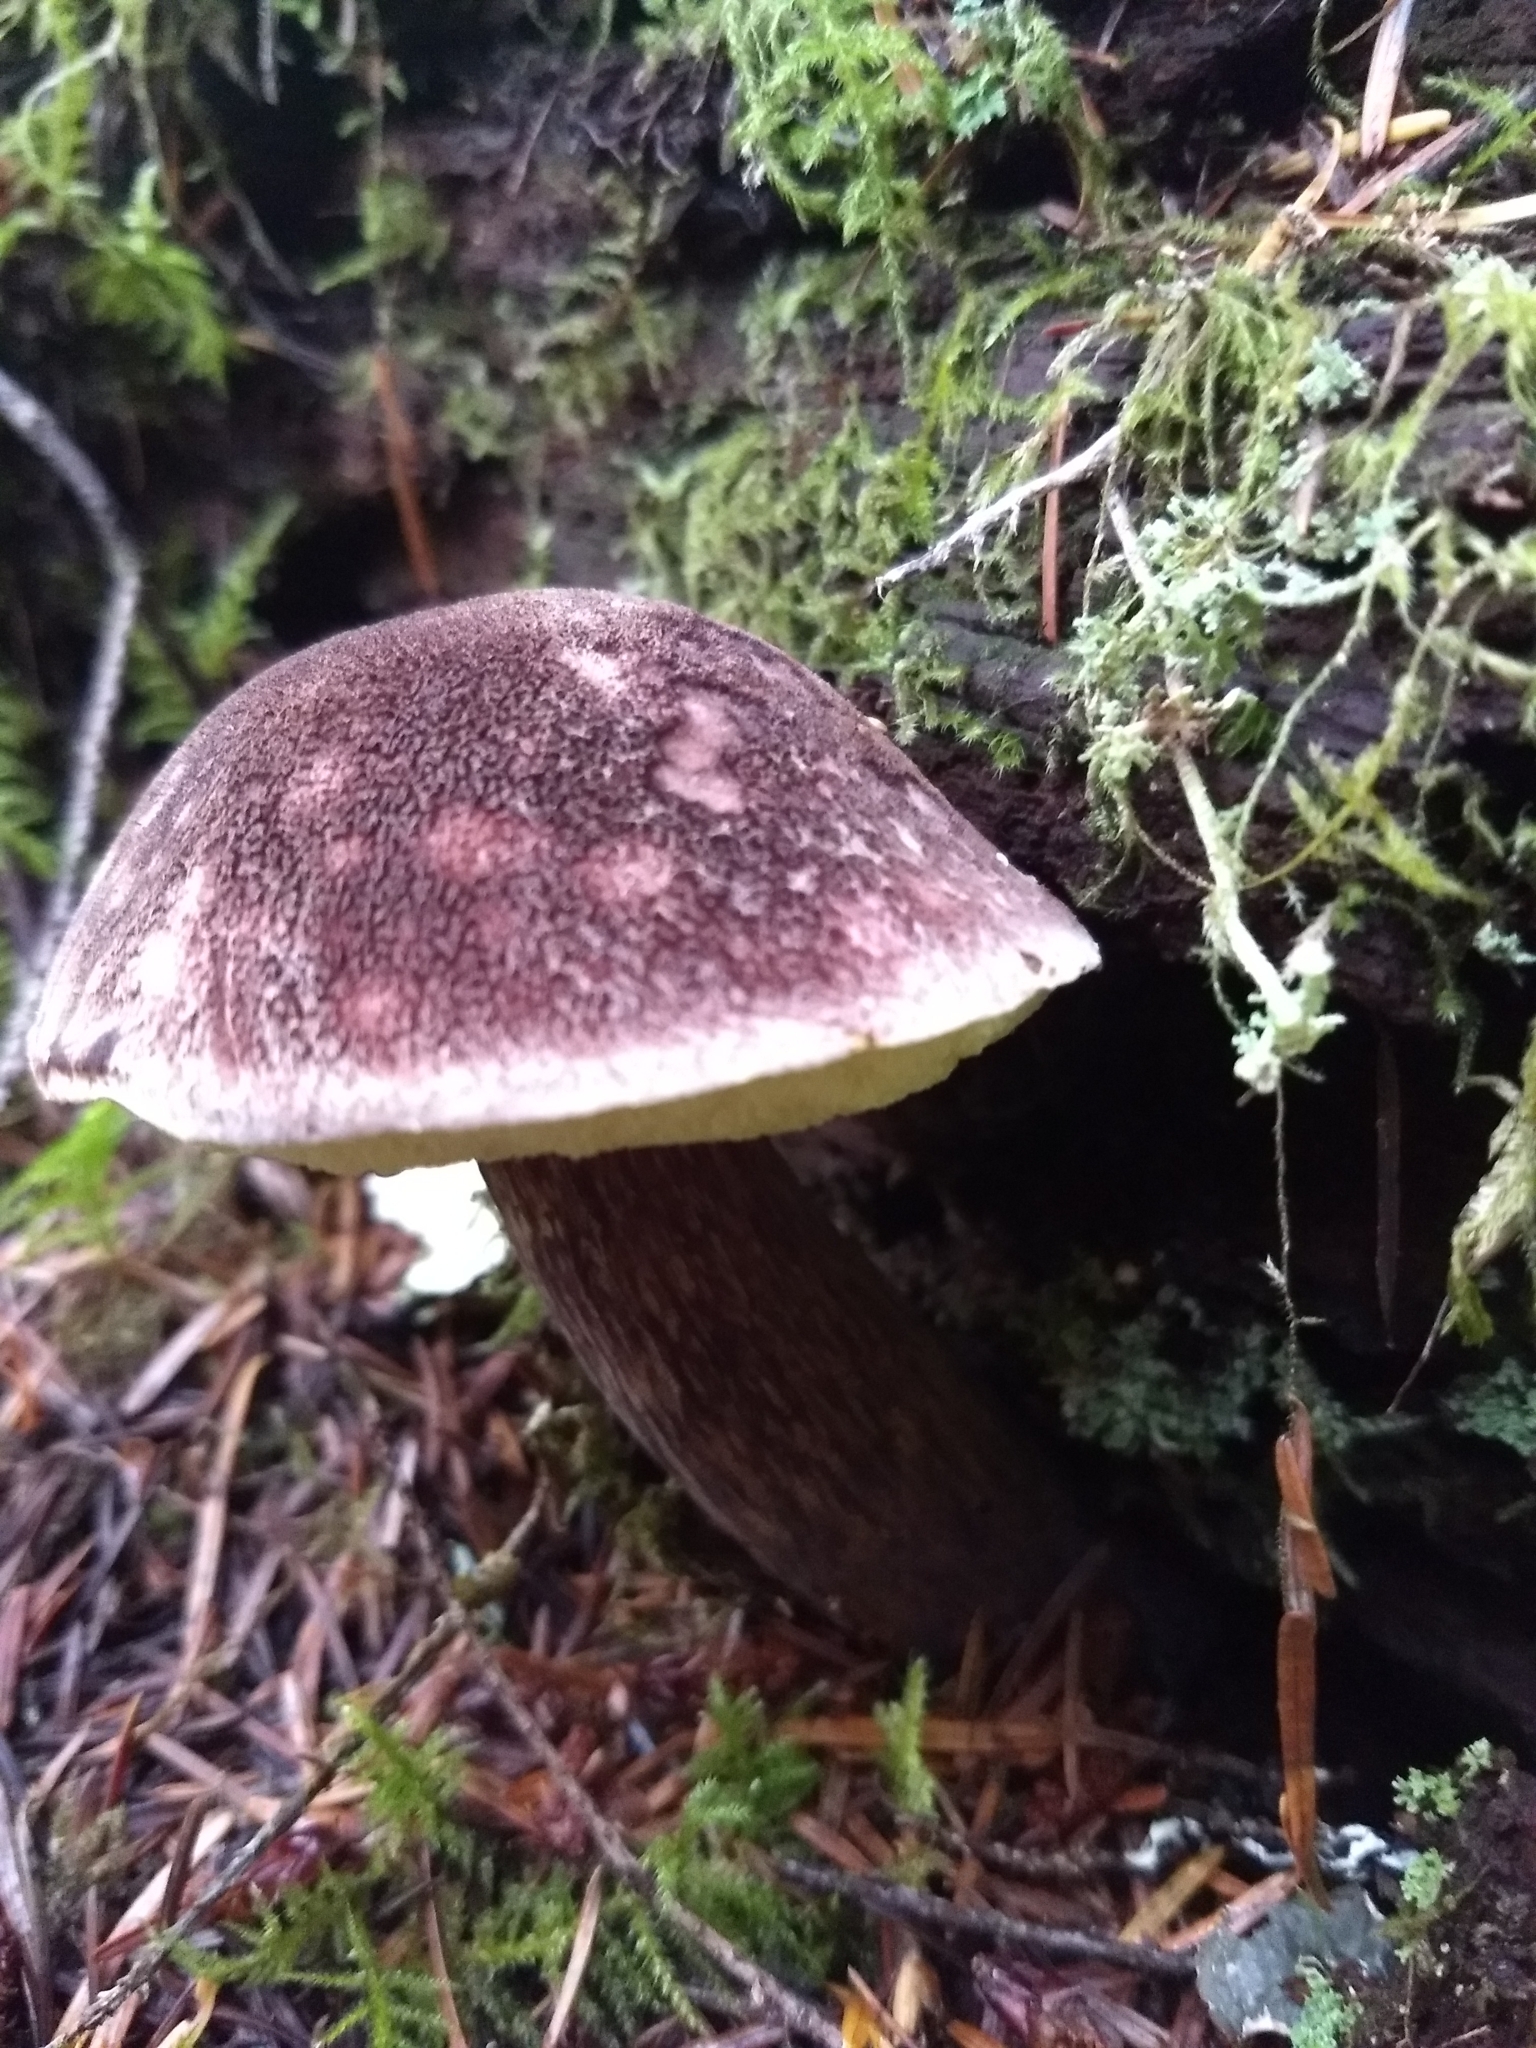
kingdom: Fungi
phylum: Basidiomycota
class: Agaricomycetes
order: Boletales
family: Boletaceae
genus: Aureoboletus
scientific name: Aureoboletus mirabilis
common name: Admirable bolete
